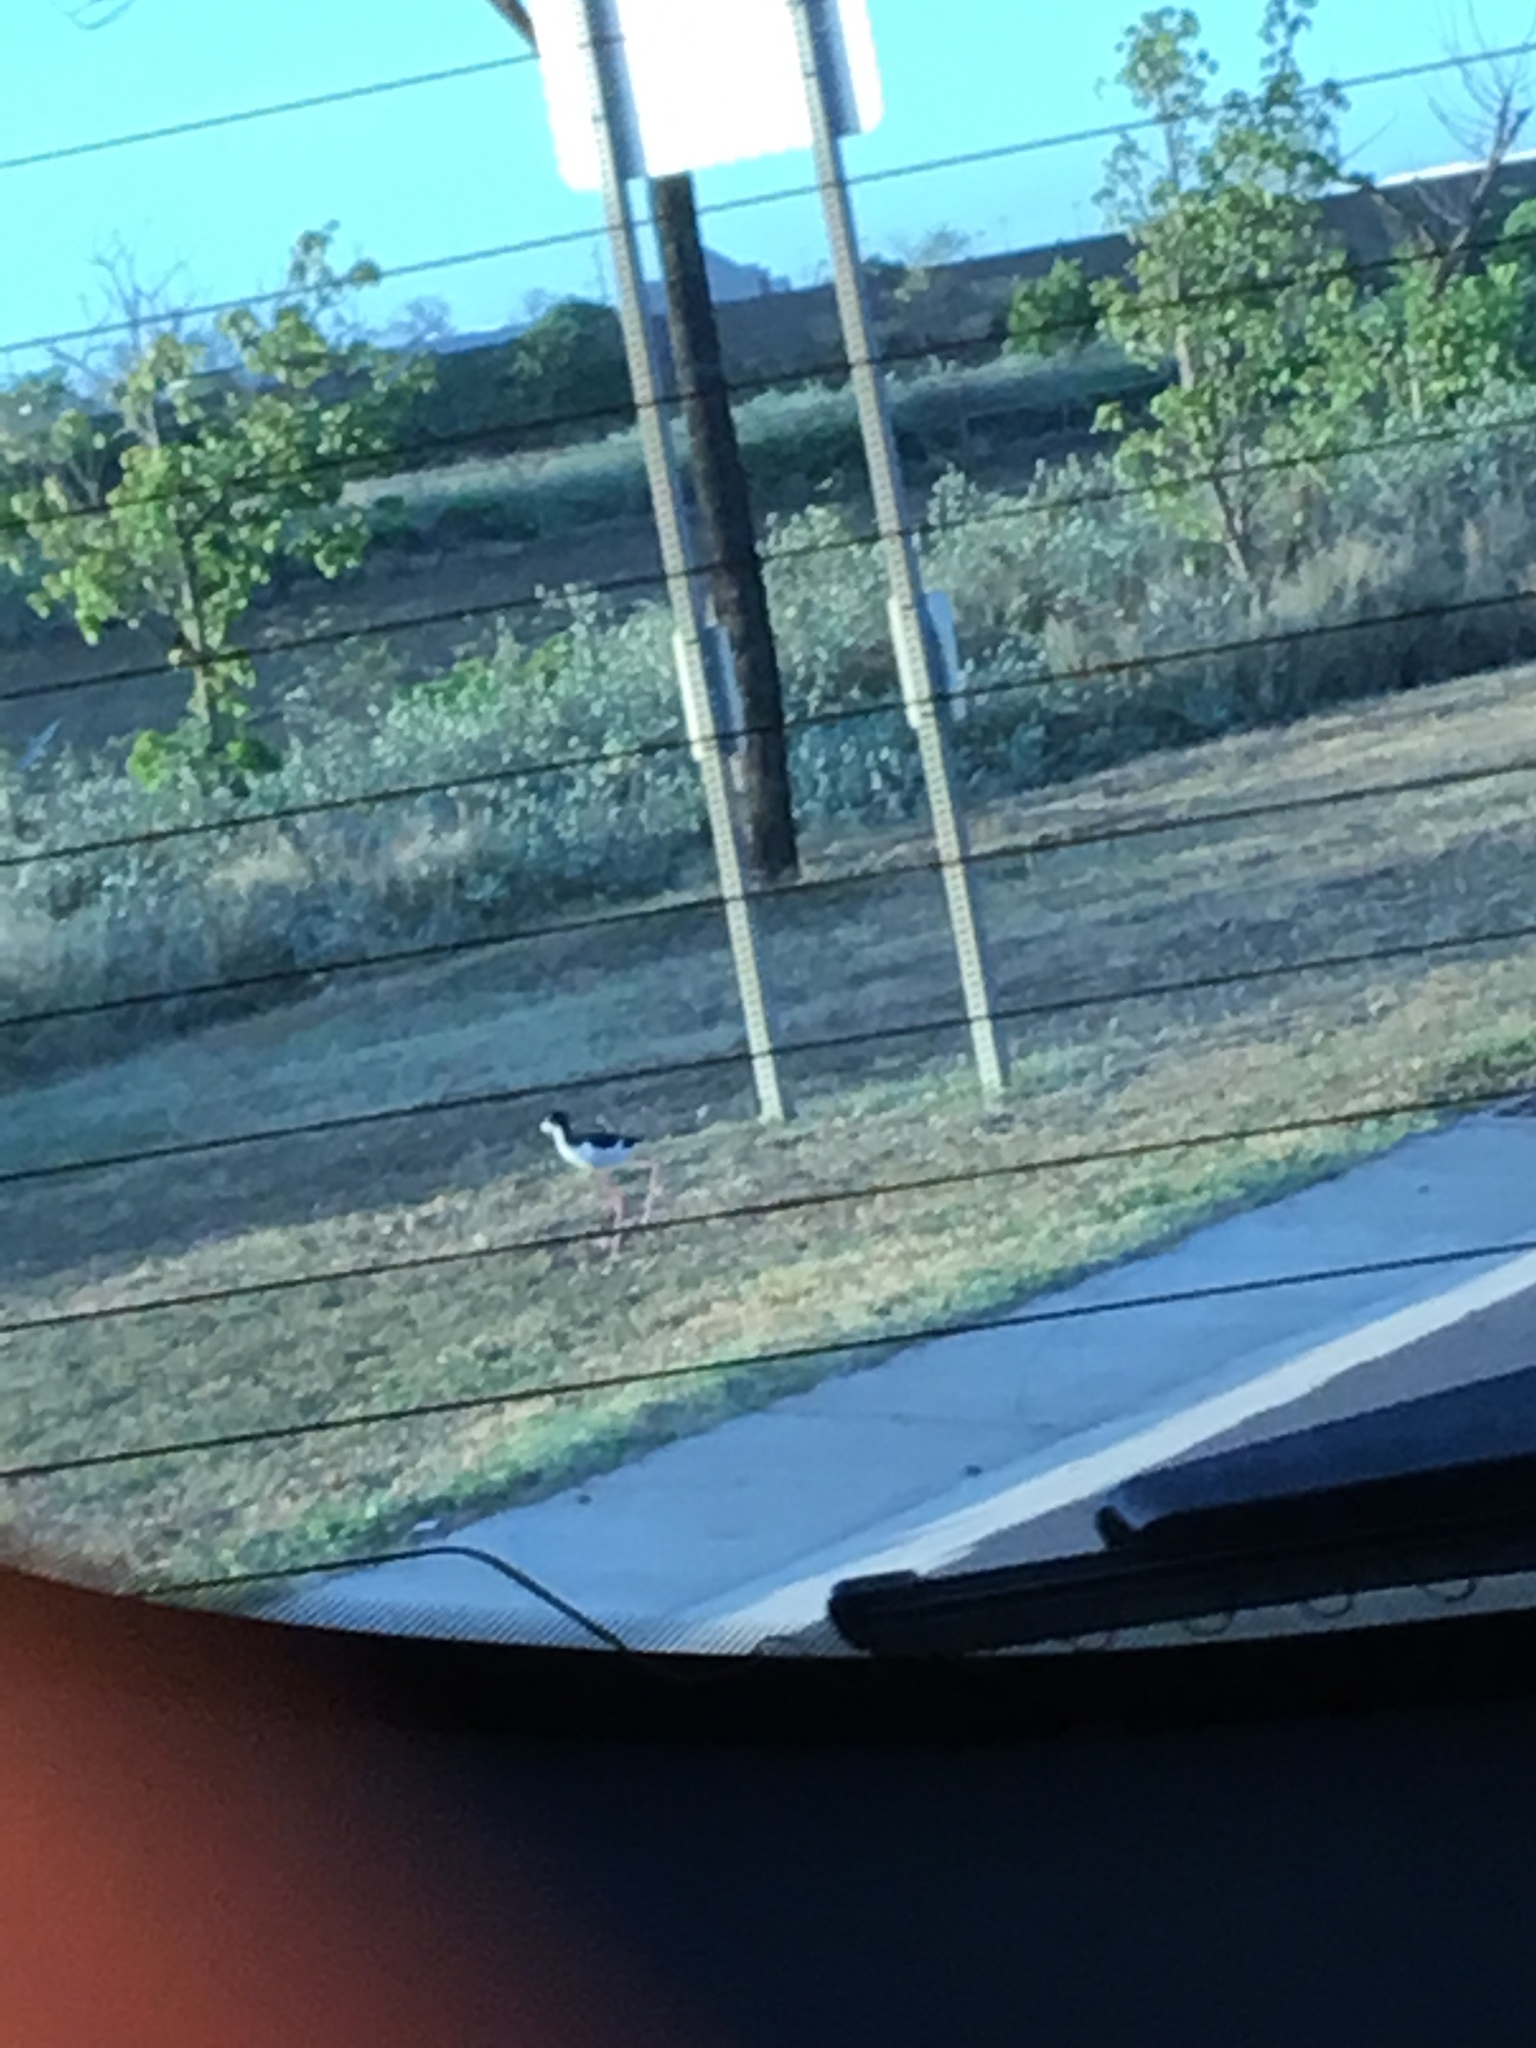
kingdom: Animalia
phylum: Chordata
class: Aves
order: Charadriiformes
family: Recurvirostridae
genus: Himantopus
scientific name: Himantopus mexicanus
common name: Black-necked stilt
